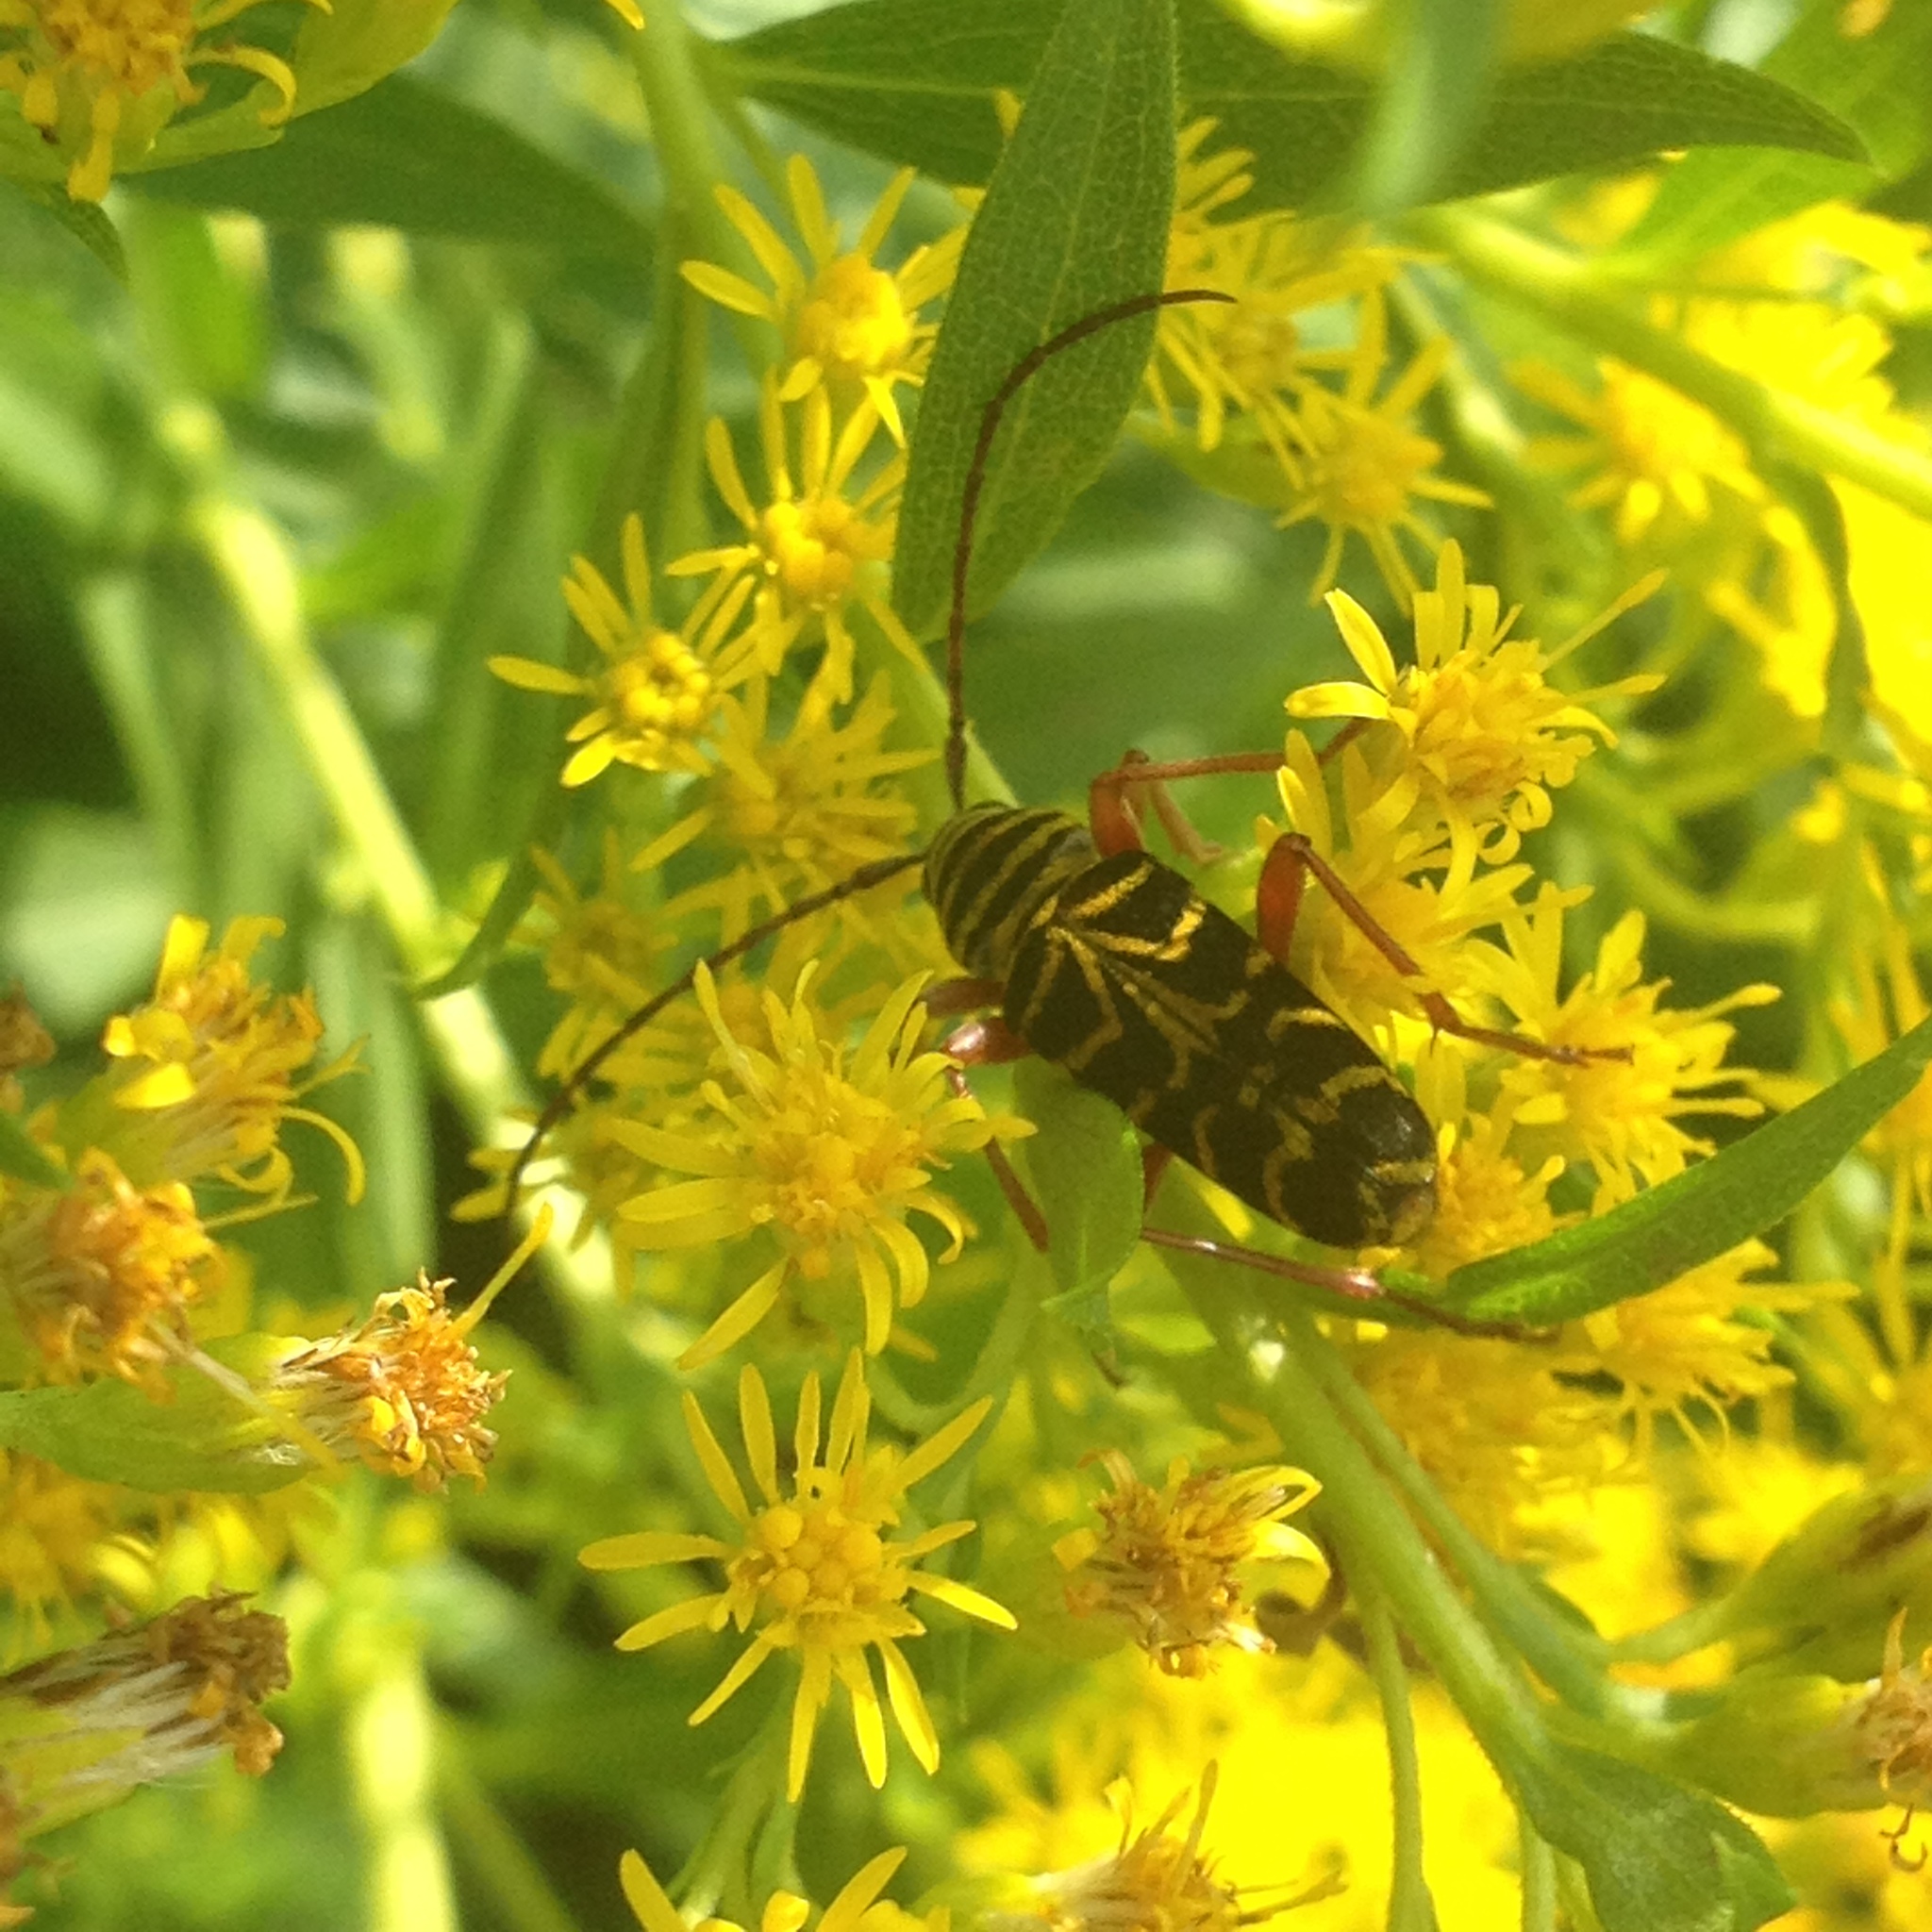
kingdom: Animalia
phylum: Arthropoda
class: Insecta
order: Coleoptera
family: Cerambycidae
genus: Megacyllene
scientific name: Megacyllene robiniae
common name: Locust borer
